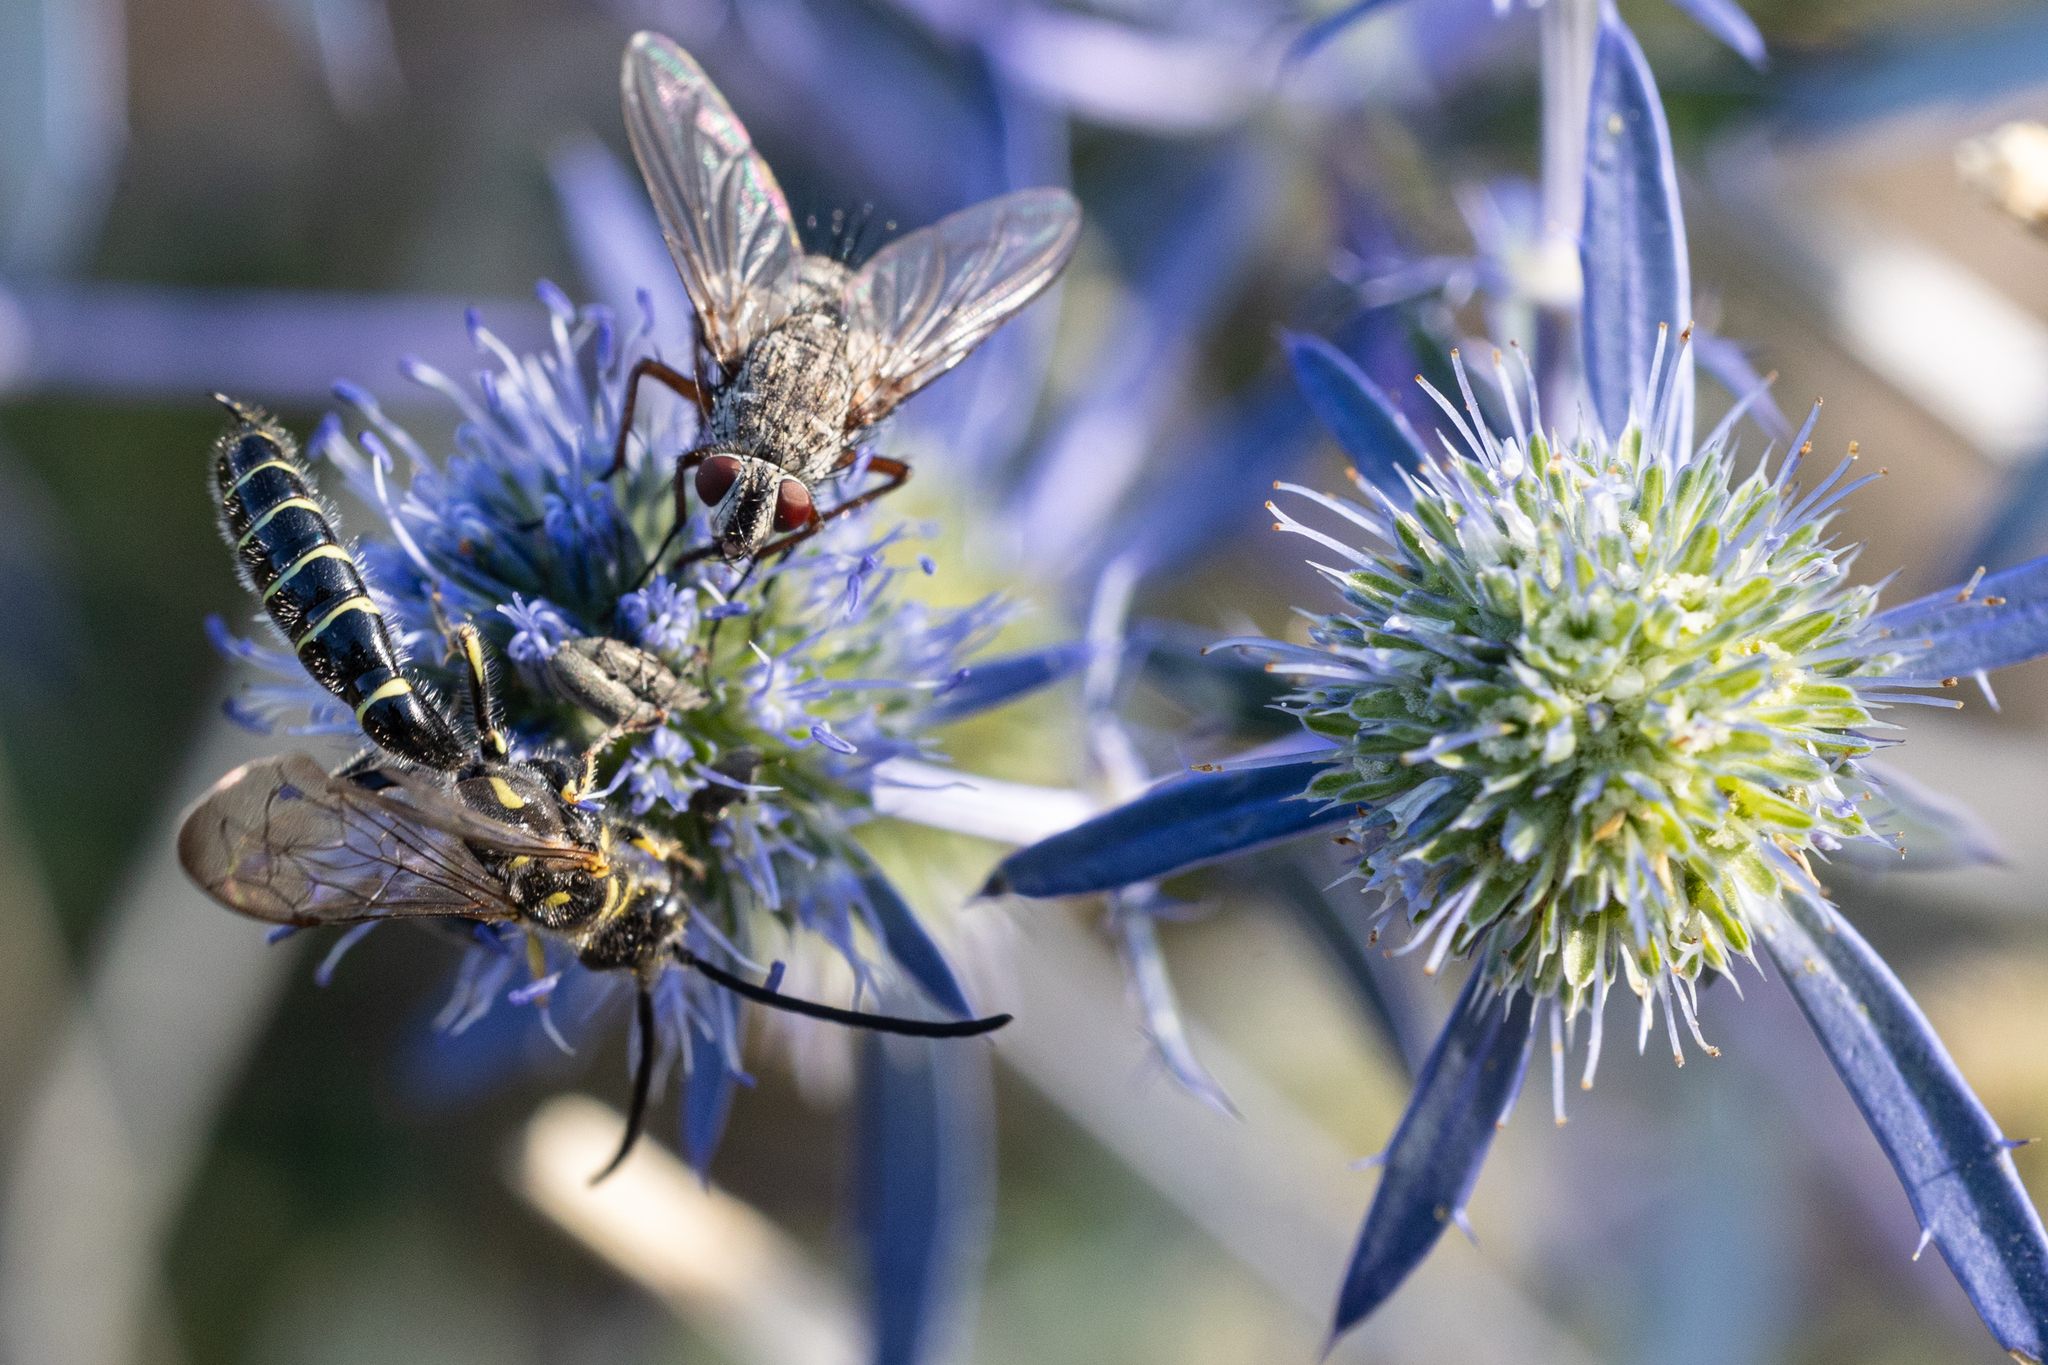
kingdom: Animalia
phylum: Arthropoda
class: Insecta
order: Hymenoptera
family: Tiphiidae
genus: Myzinum
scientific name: Myzinum quinquecinctum
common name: Five-banded thynnid wasp
